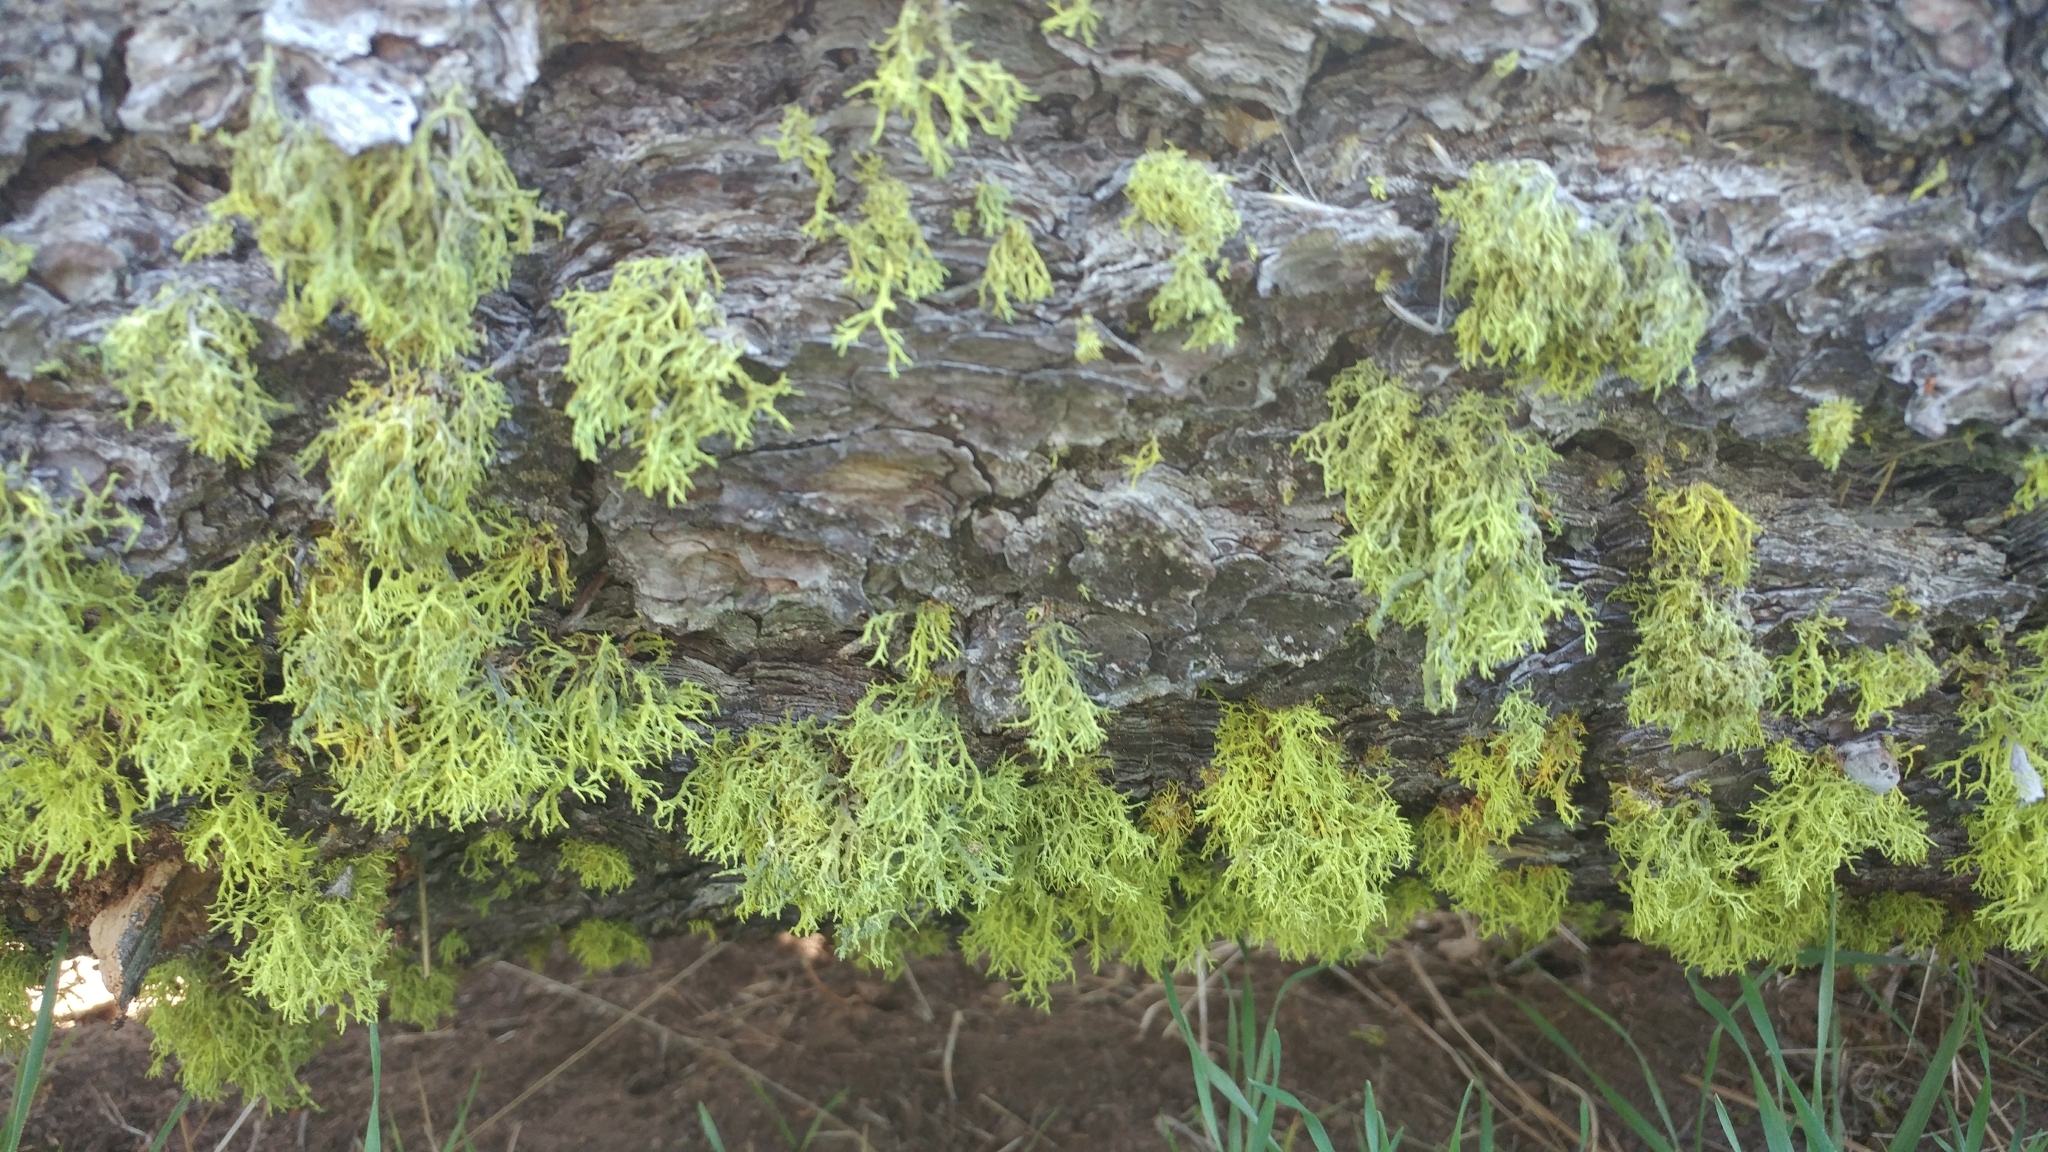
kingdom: Fungi
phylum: Ascomycota
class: Lecanoromycetes
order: Lecanorales
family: Parmeliaceae
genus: Letharia
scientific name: Letharia vulpina
